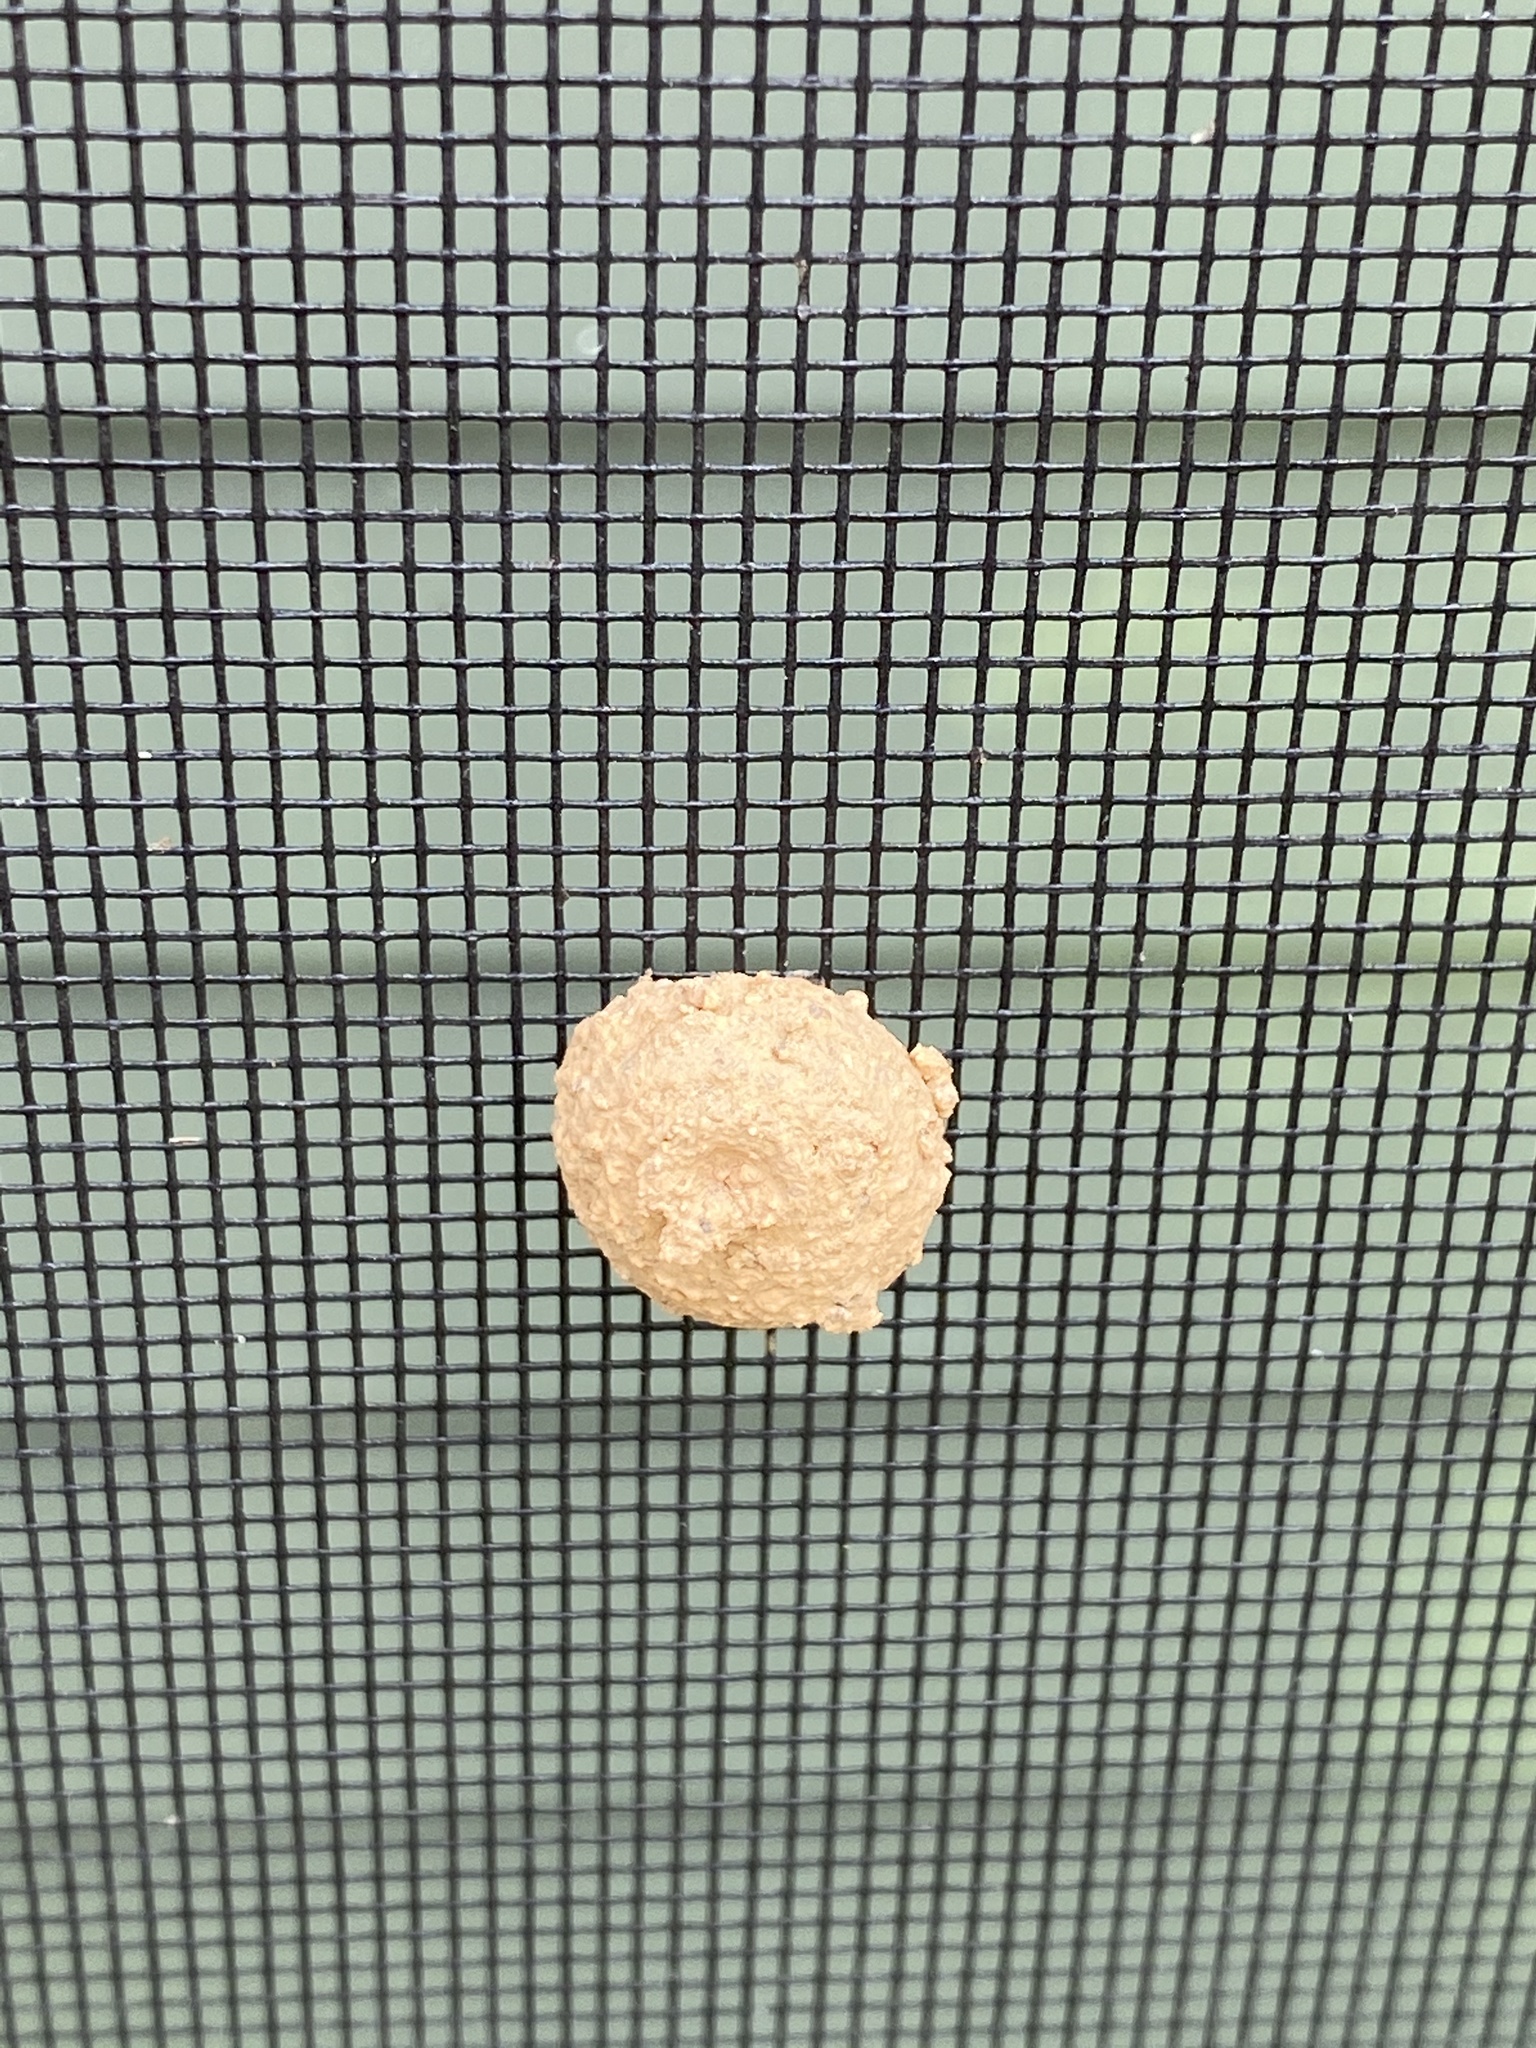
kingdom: Animalia
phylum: Arthropoda
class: Insecta
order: Hymenoptera
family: Eumenidae
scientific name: Eumenidae
